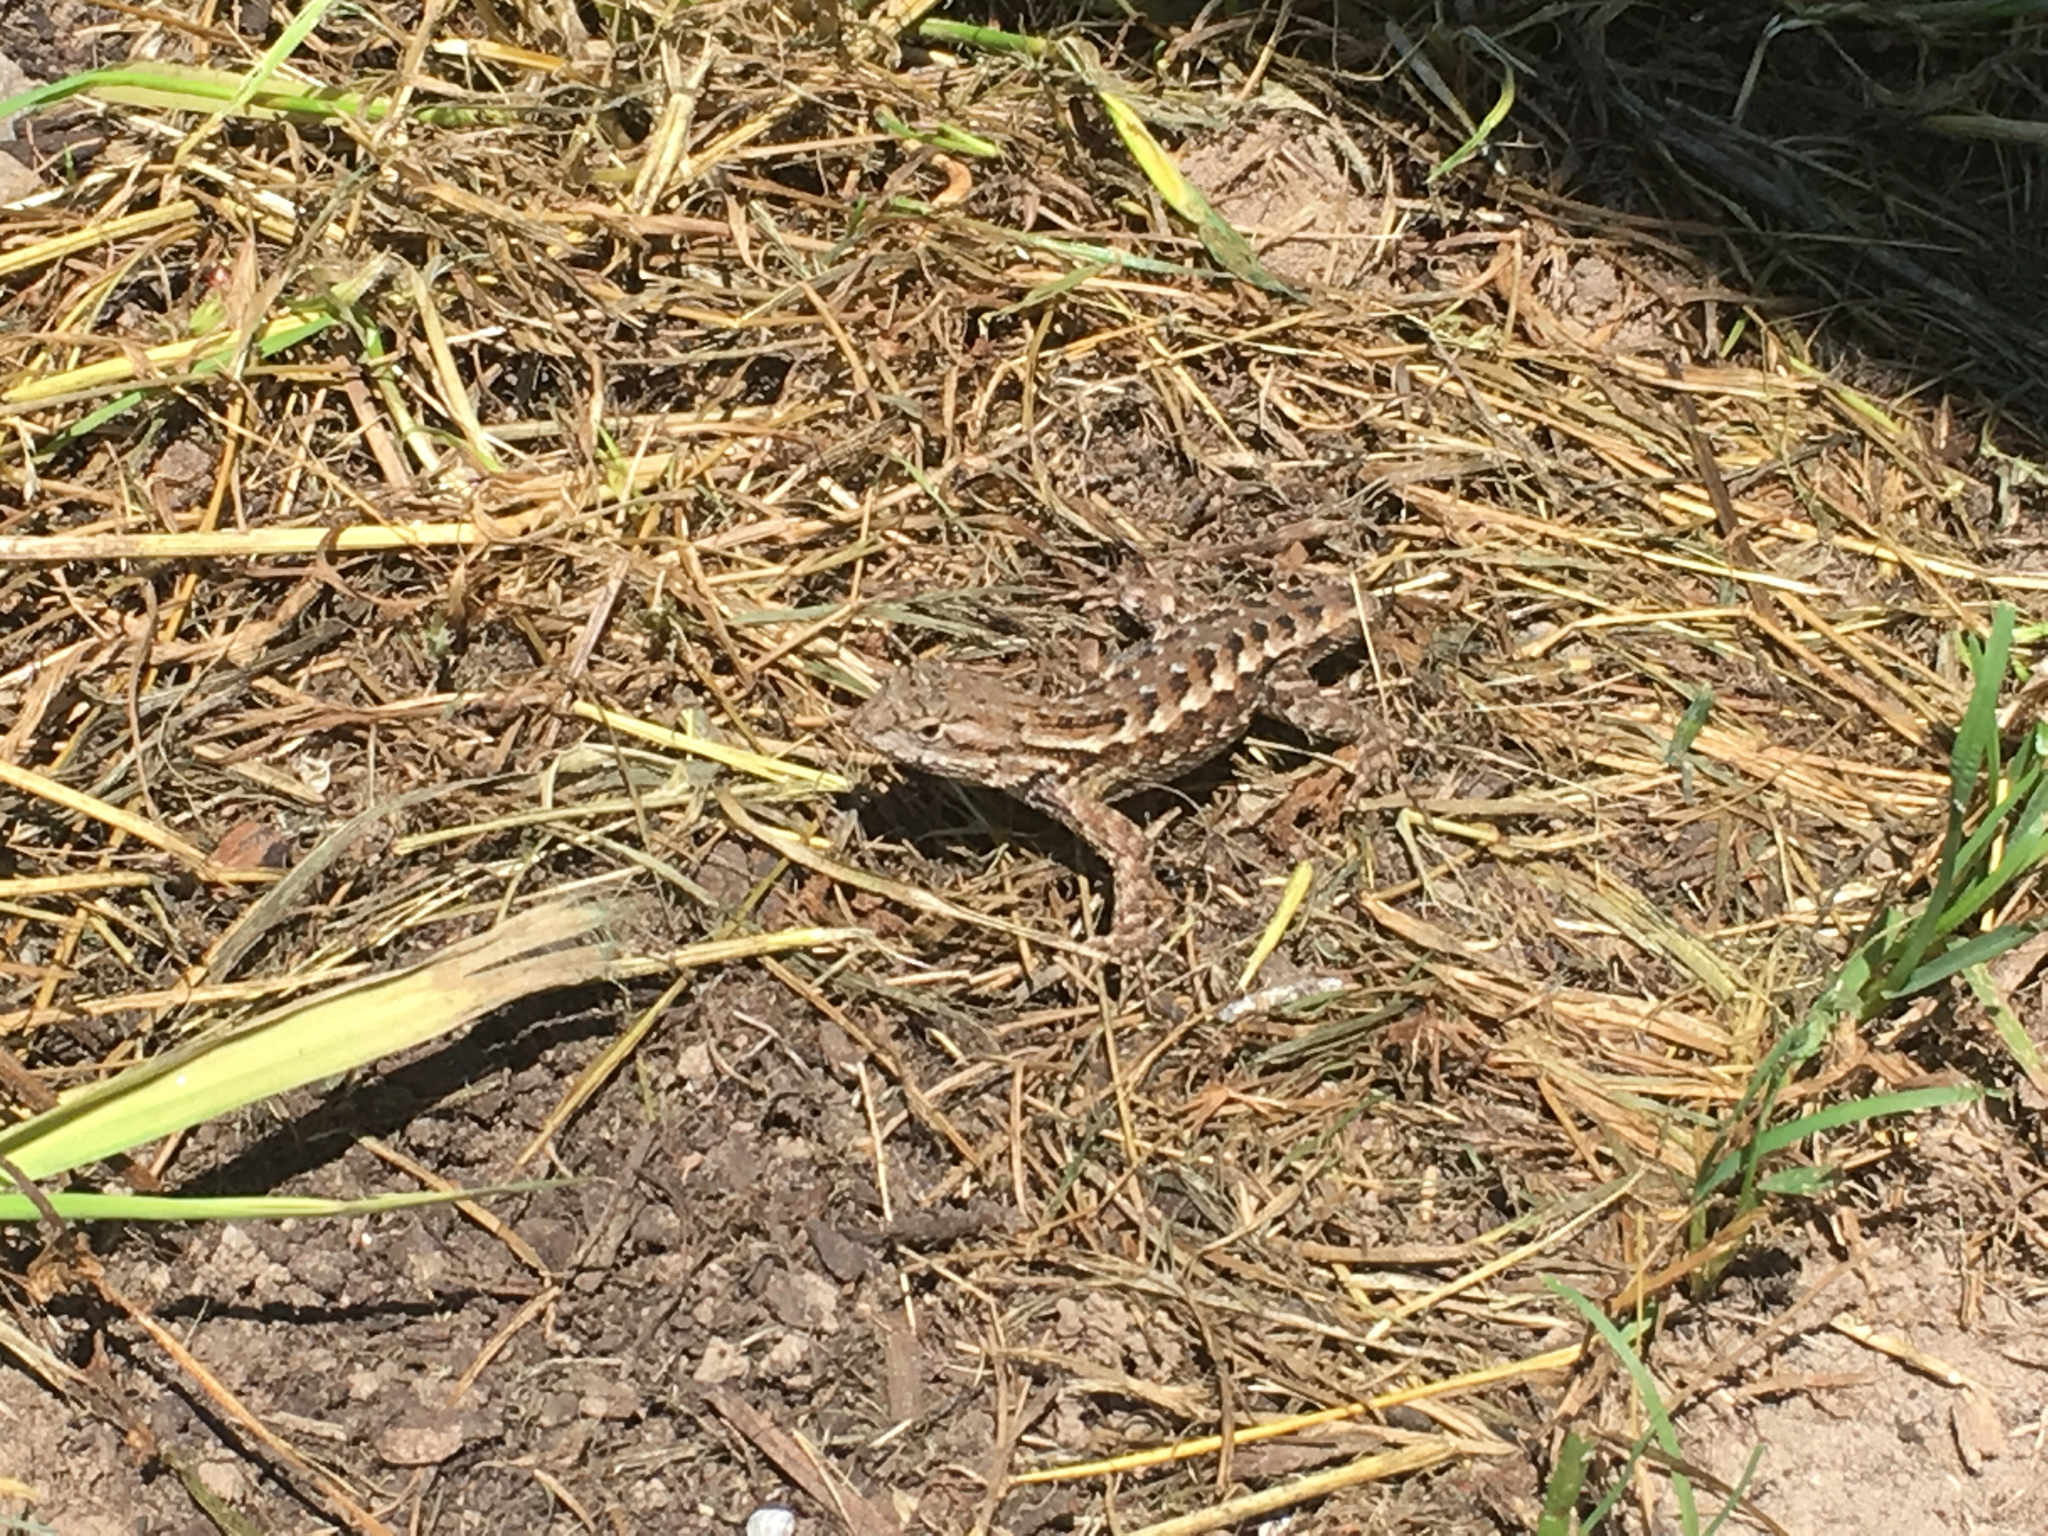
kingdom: Animalia
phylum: Chordata
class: Squamata
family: Phrynosomatidae
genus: Sceloporus
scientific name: Sceloporus occidentalis
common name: Western fence lizard
